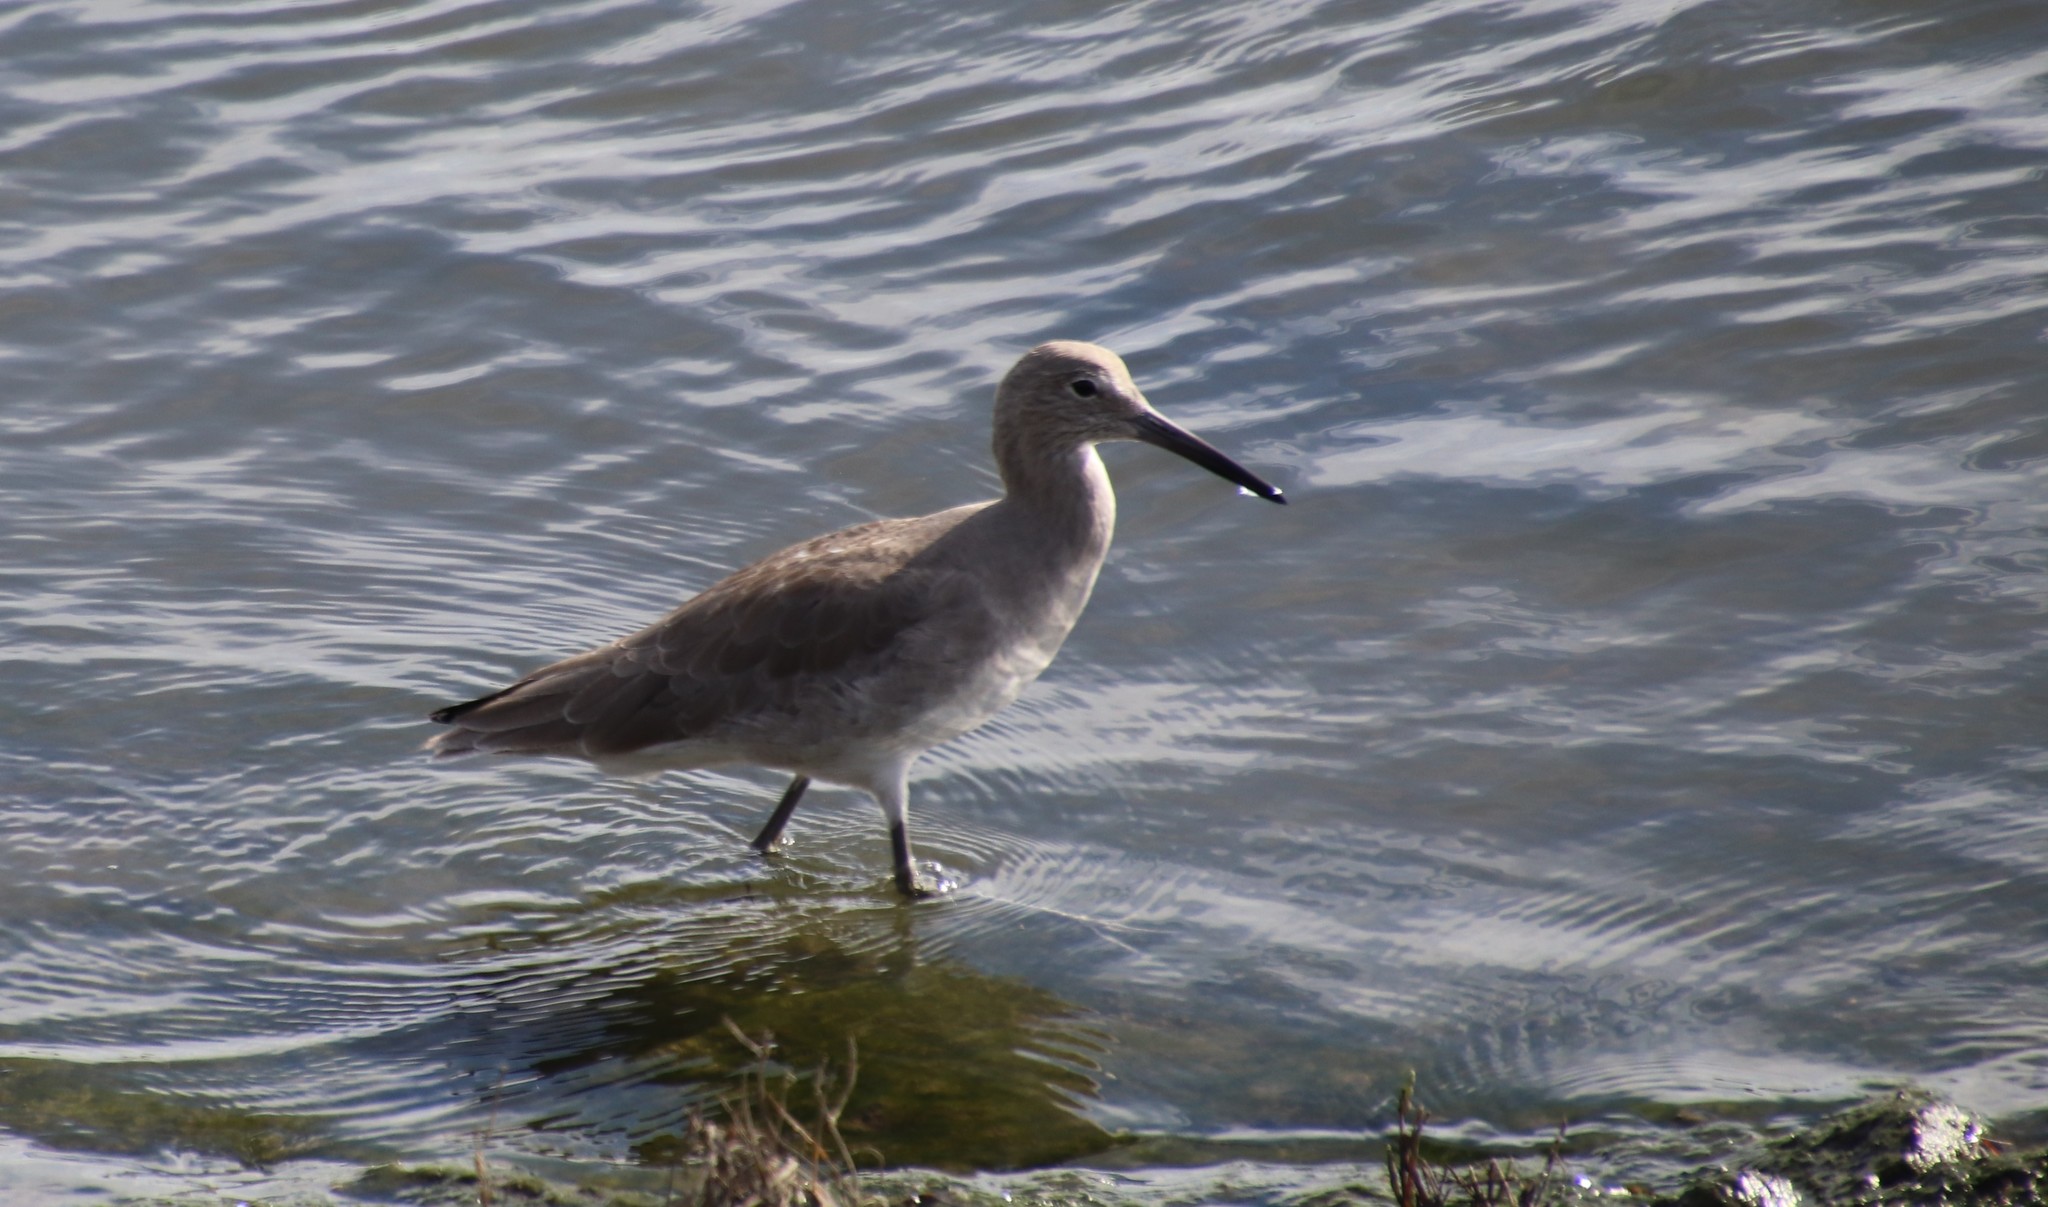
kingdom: Animalia
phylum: Chordata
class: Aves
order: Charadriiformes
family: Scolopacidae
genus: Tringa
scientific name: Tringa semipalmata
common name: Willet
